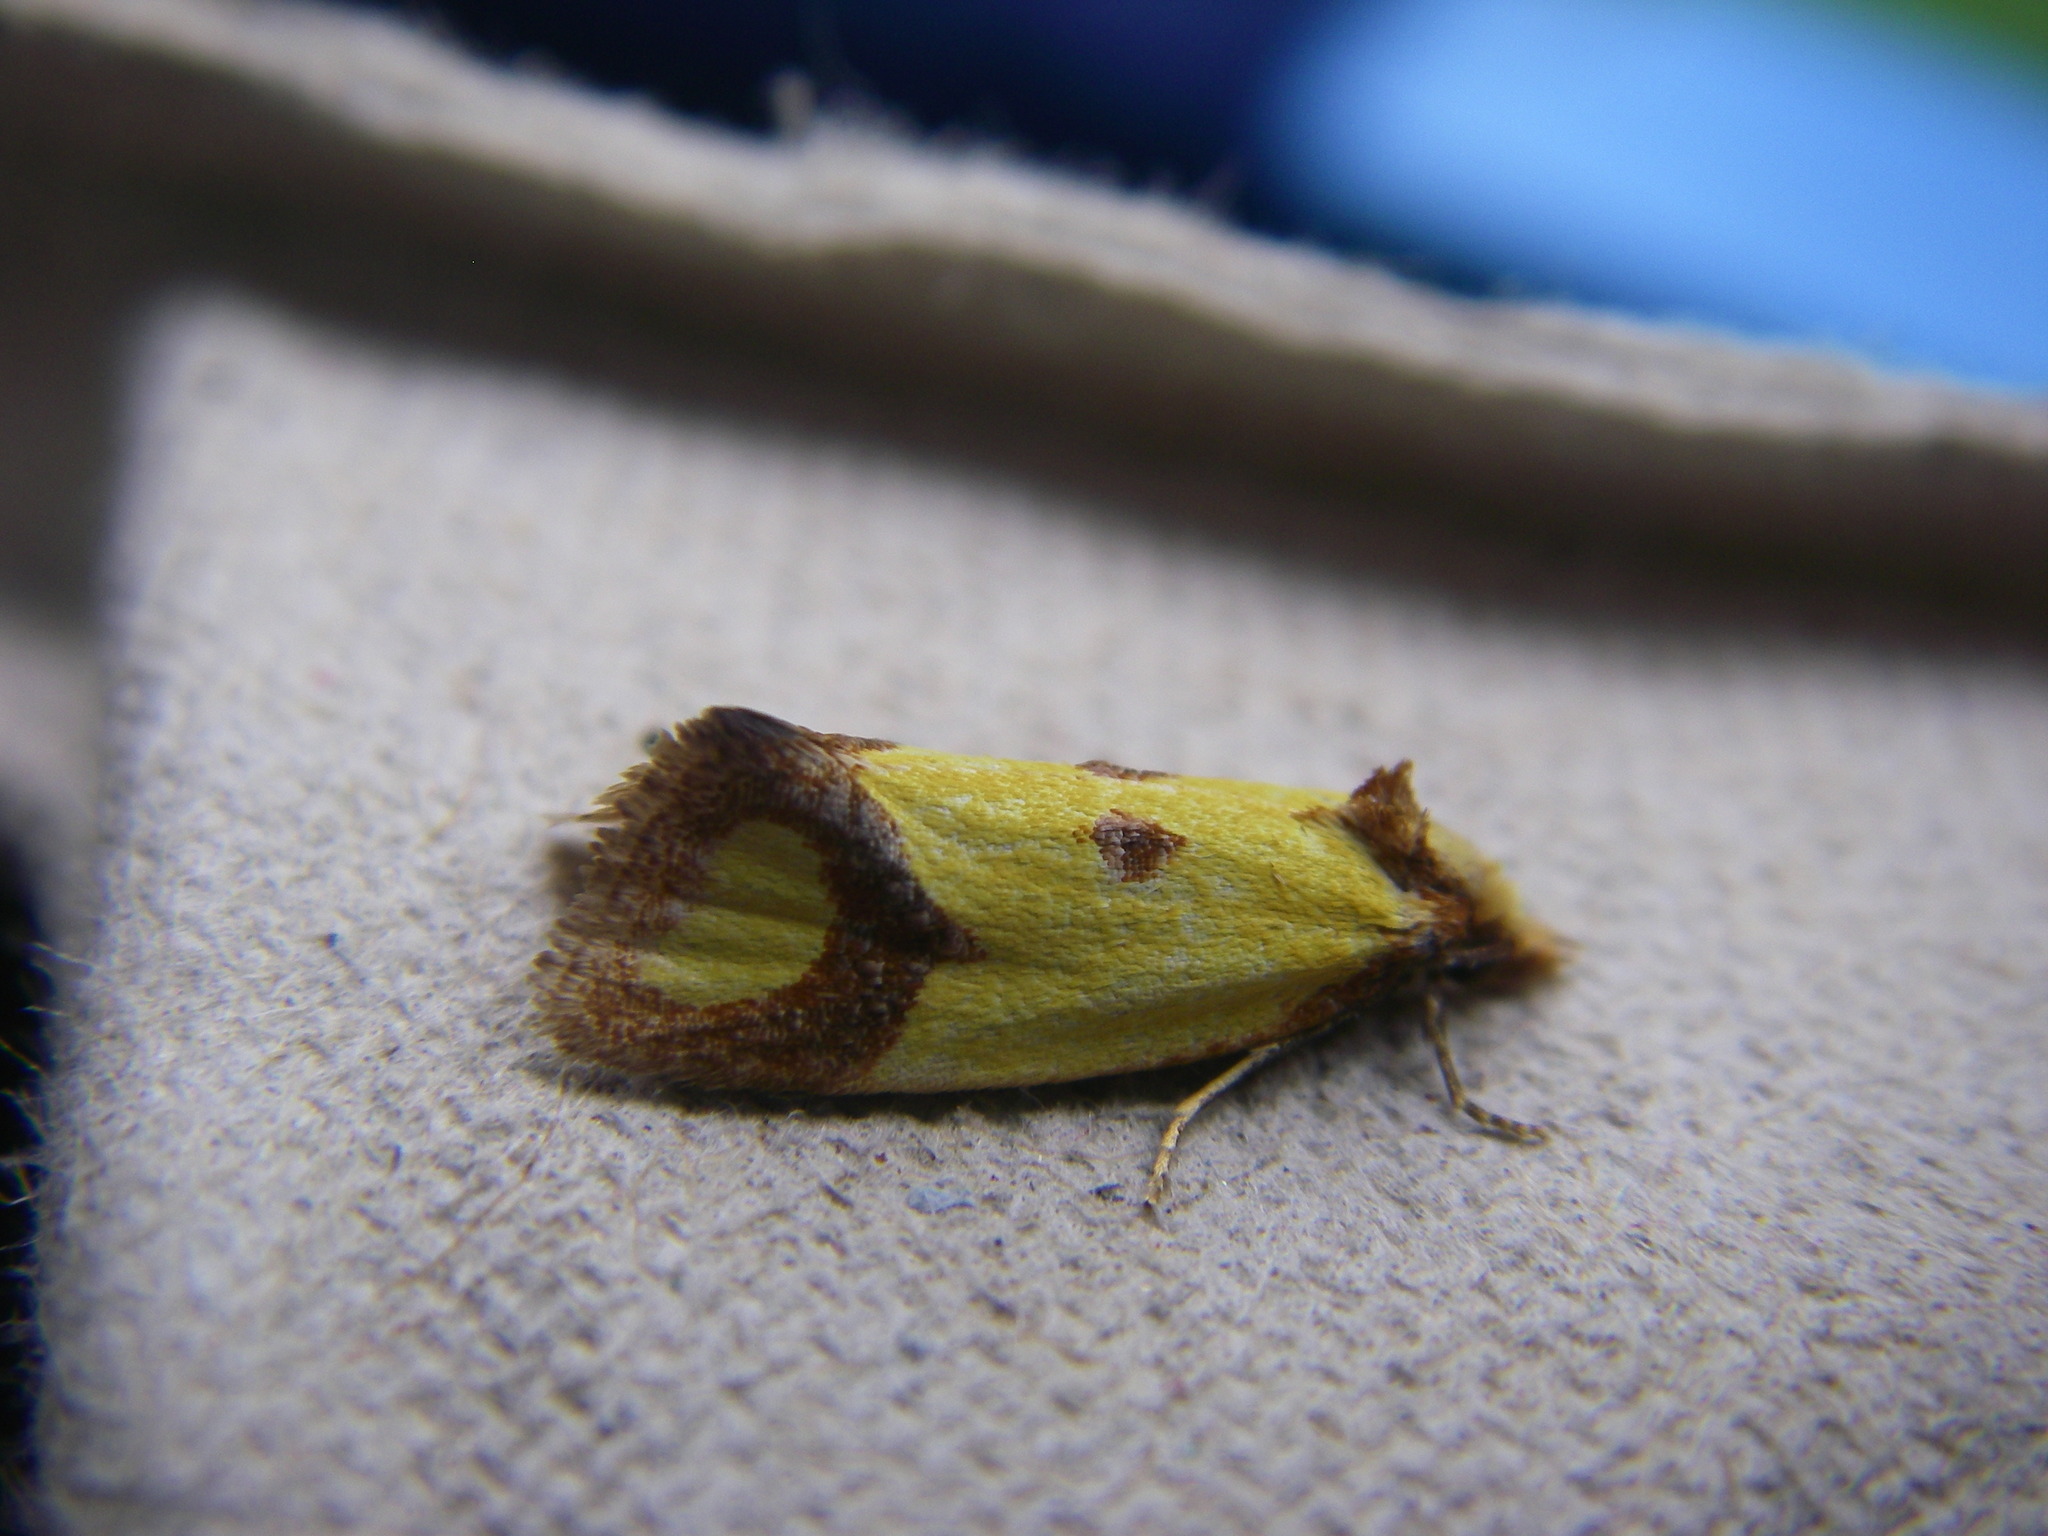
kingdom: Animalia
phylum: Arthropoda
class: Insecta
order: Lepidoptera
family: Tortricidae
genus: Agapeta
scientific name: Agapeta zoegana
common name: Sulfur knapweed root moth
